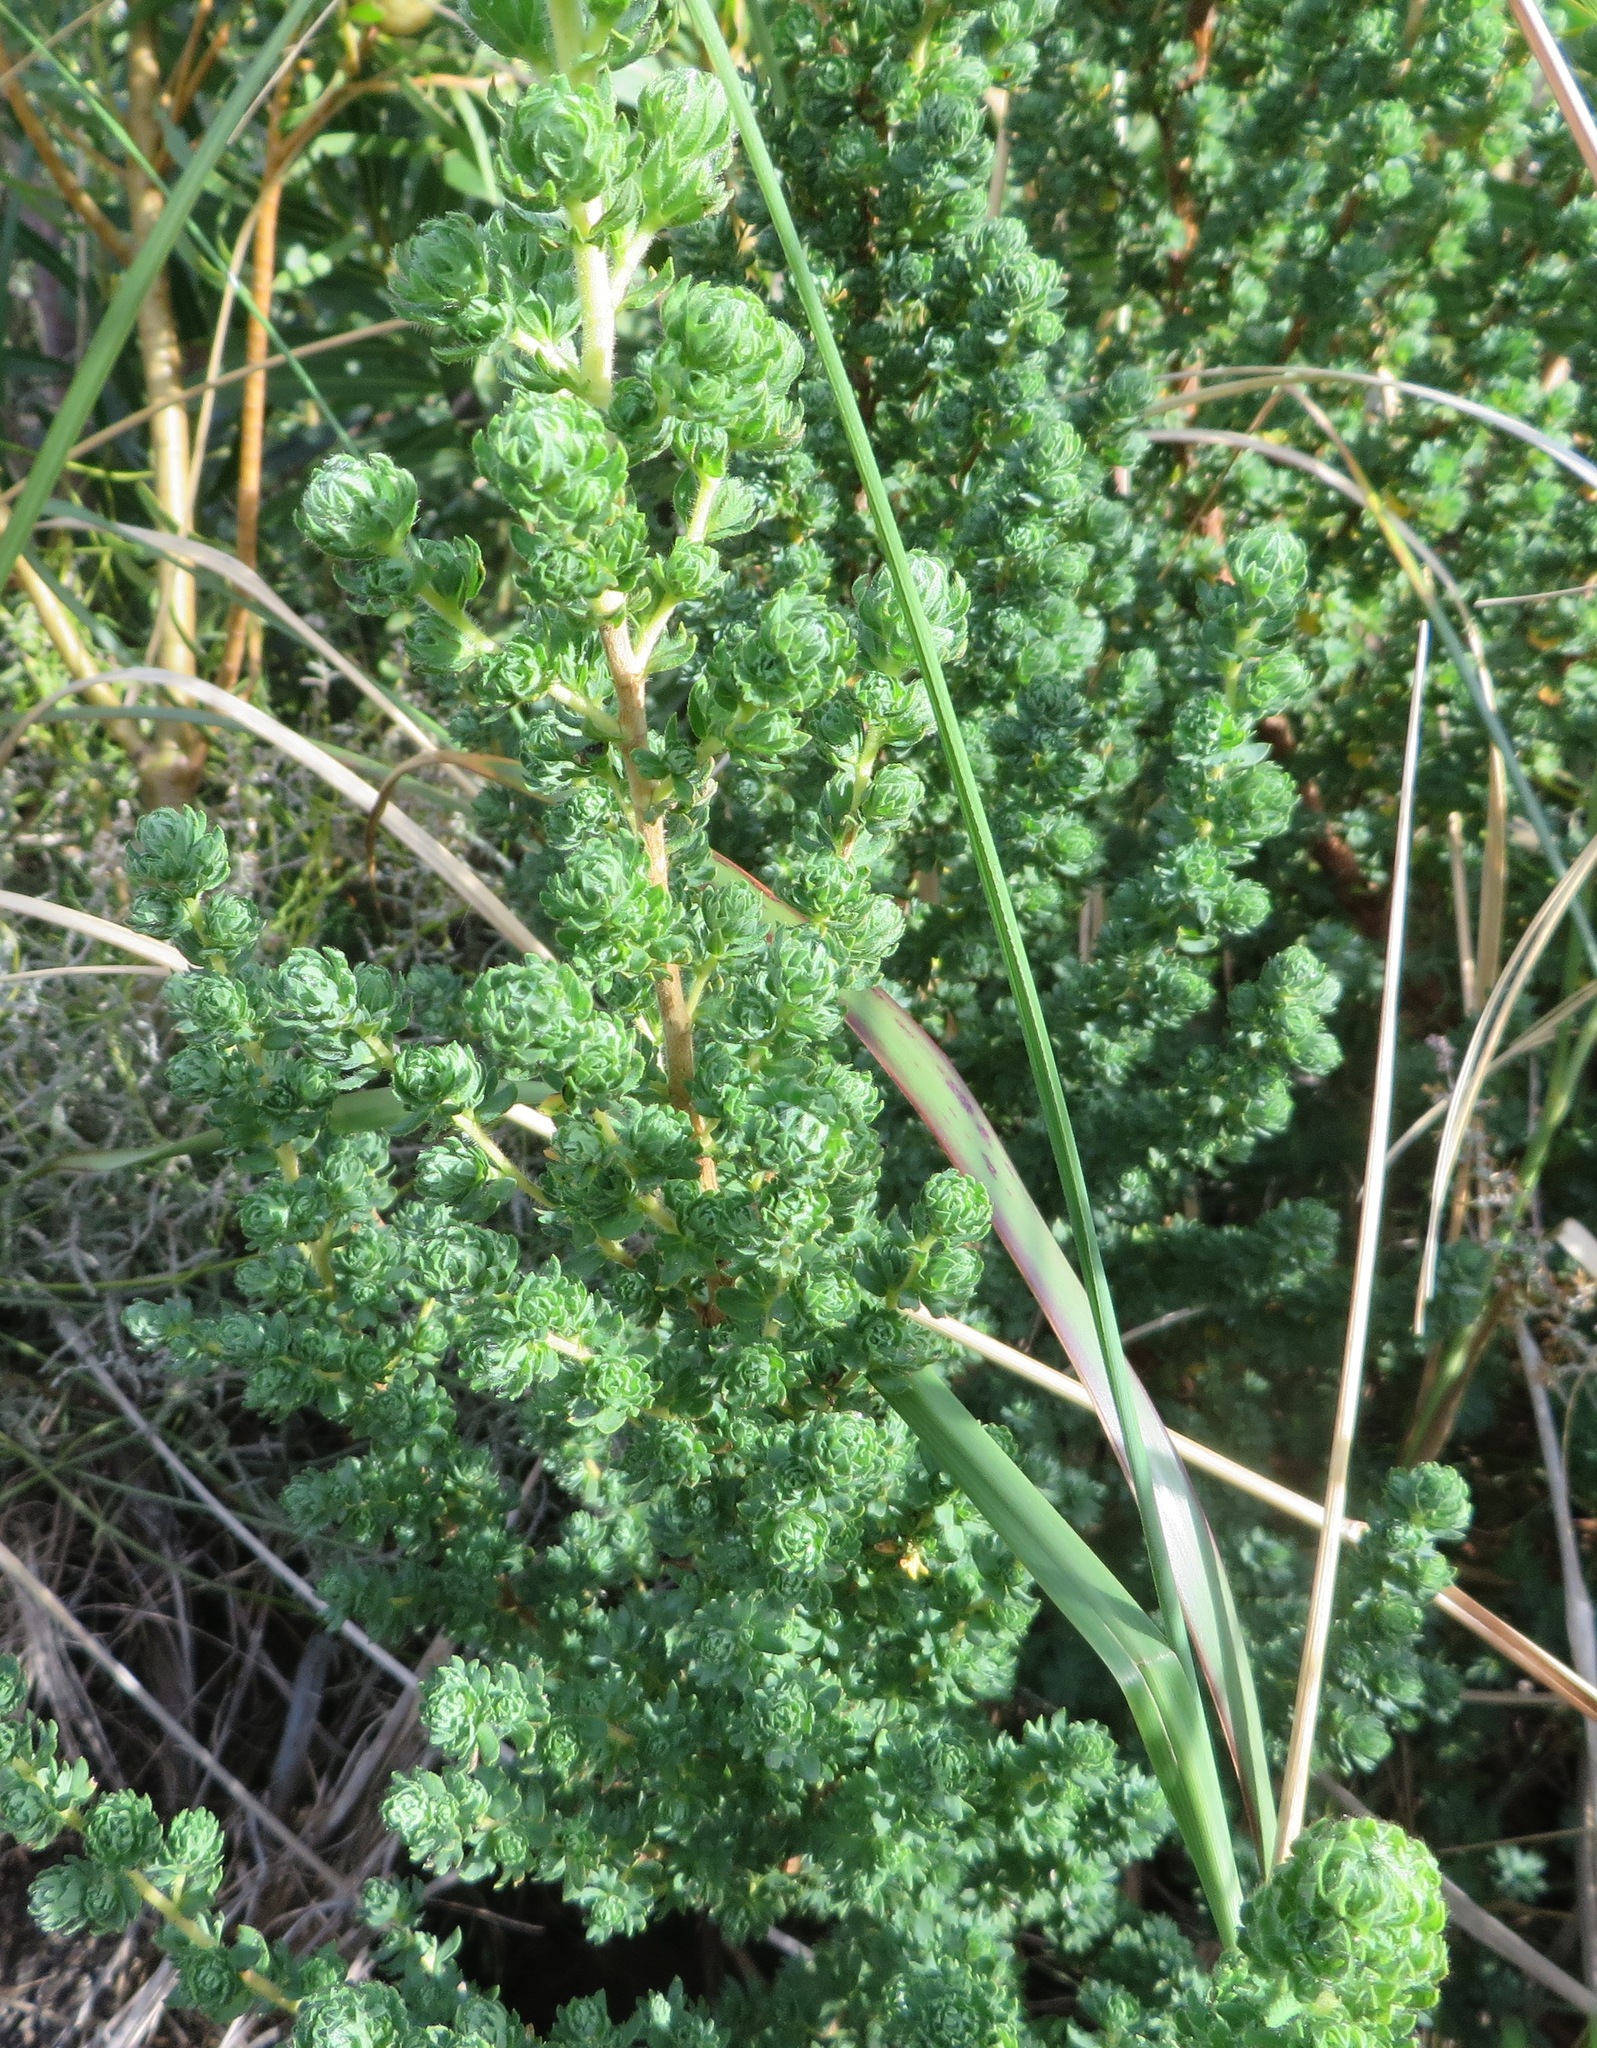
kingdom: Plantae
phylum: Tracheophyta
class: Magnoliopsida
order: Rosales
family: Rosaceae
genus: Cliffortia
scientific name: Cliffortia polygonifolia
